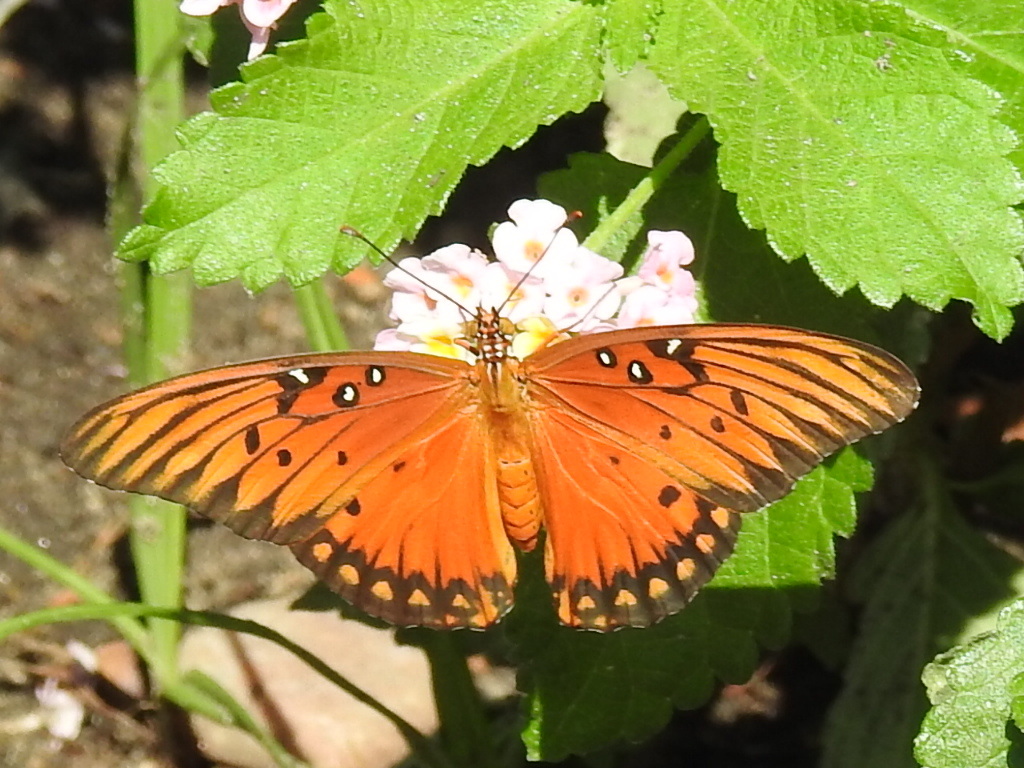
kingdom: Animalia
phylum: Arthropoda
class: Insecta
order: Lepidoptera
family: Nymphalidae
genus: Dione
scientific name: Dione vanillae
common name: Gulf fritillary
